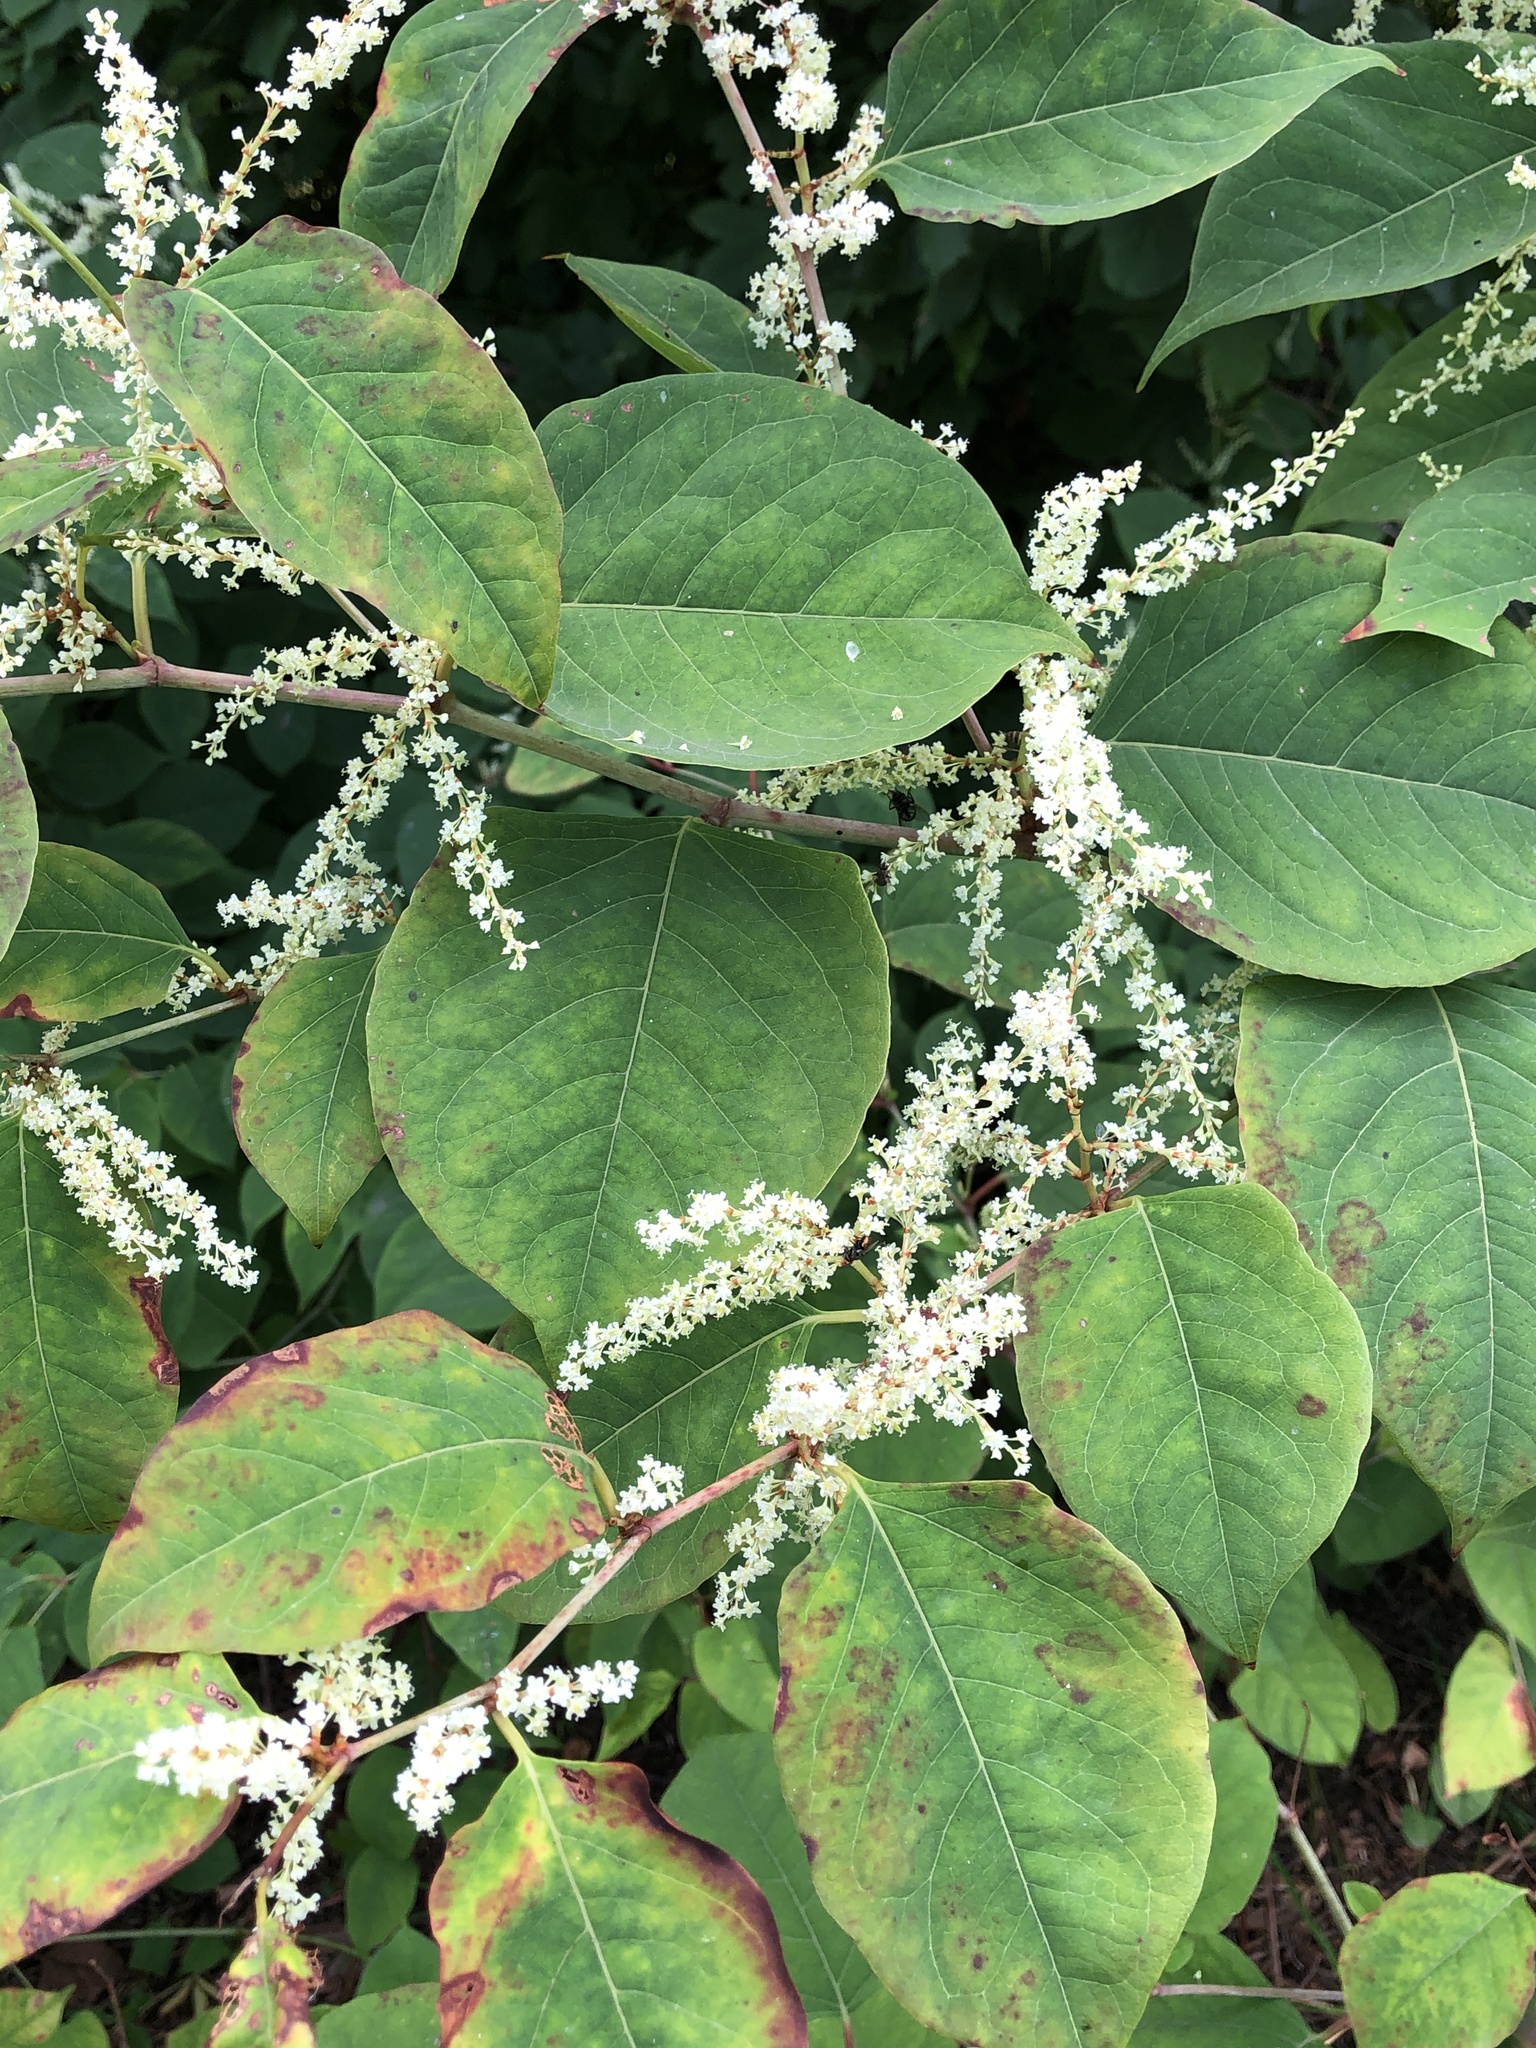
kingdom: Plantae
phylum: Tracheophyta
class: Magnoliopsida
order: Caryophyllales
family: Polygonaceae
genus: Reynoutria
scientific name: Reynoutria japonica
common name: Japanese knotweed
